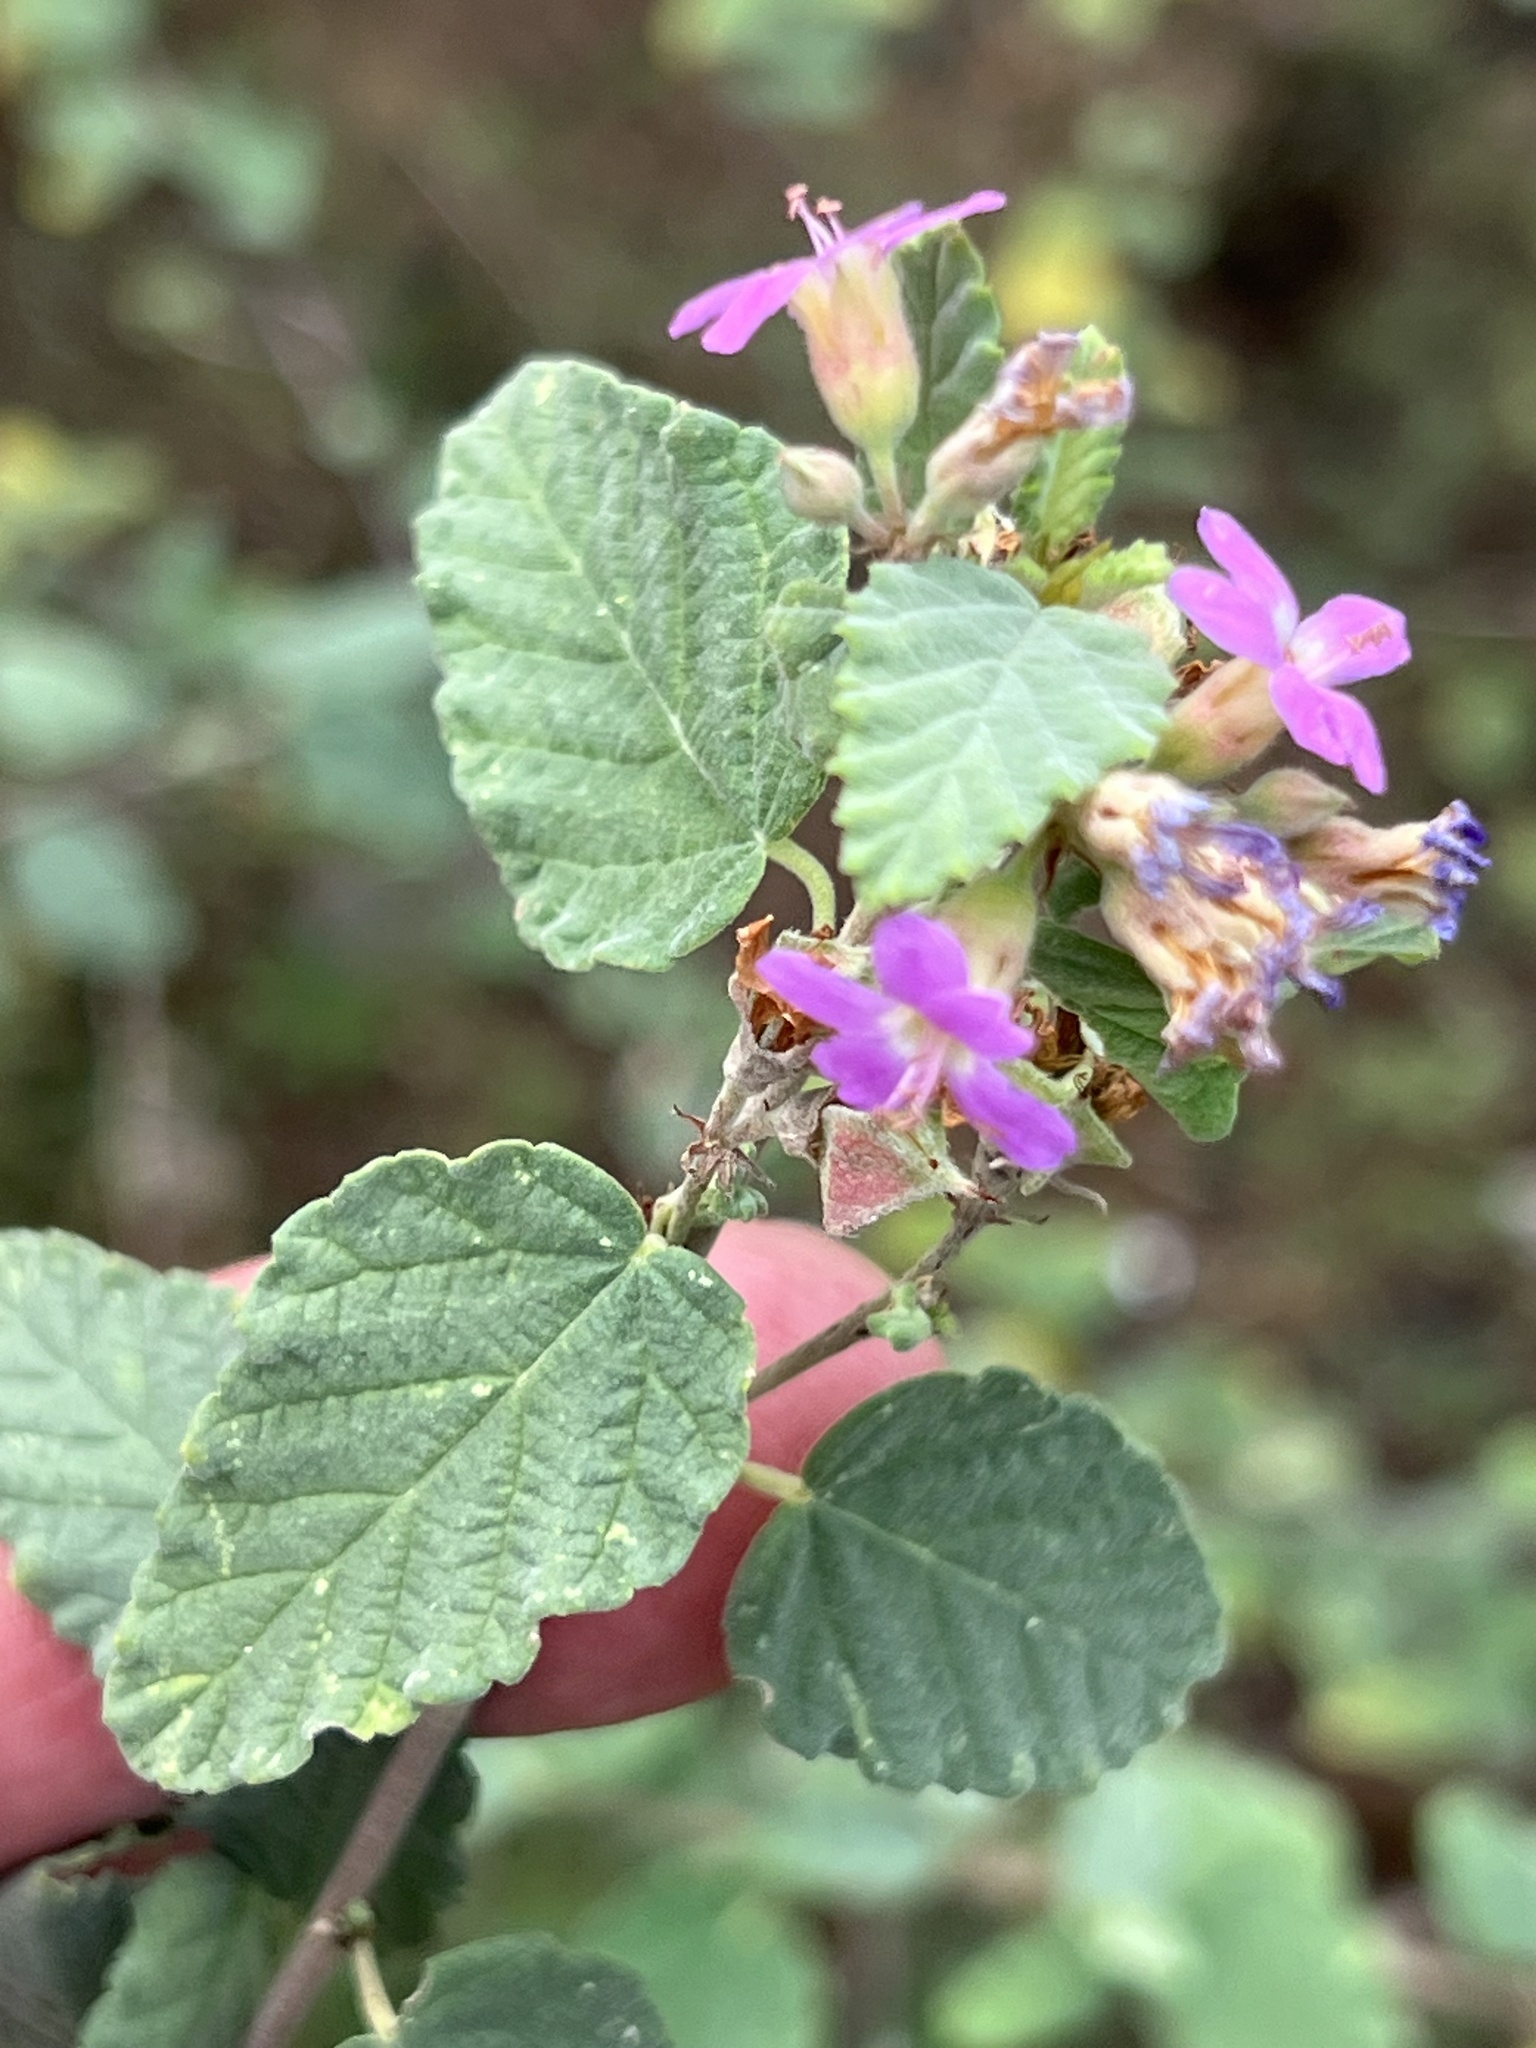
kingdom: Plantae
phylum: Tracheophyta
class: Magnoliopsida
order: Malvales
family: Malvaceae
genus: Melochia
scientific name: Melochia tomentosa
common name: Black torch
